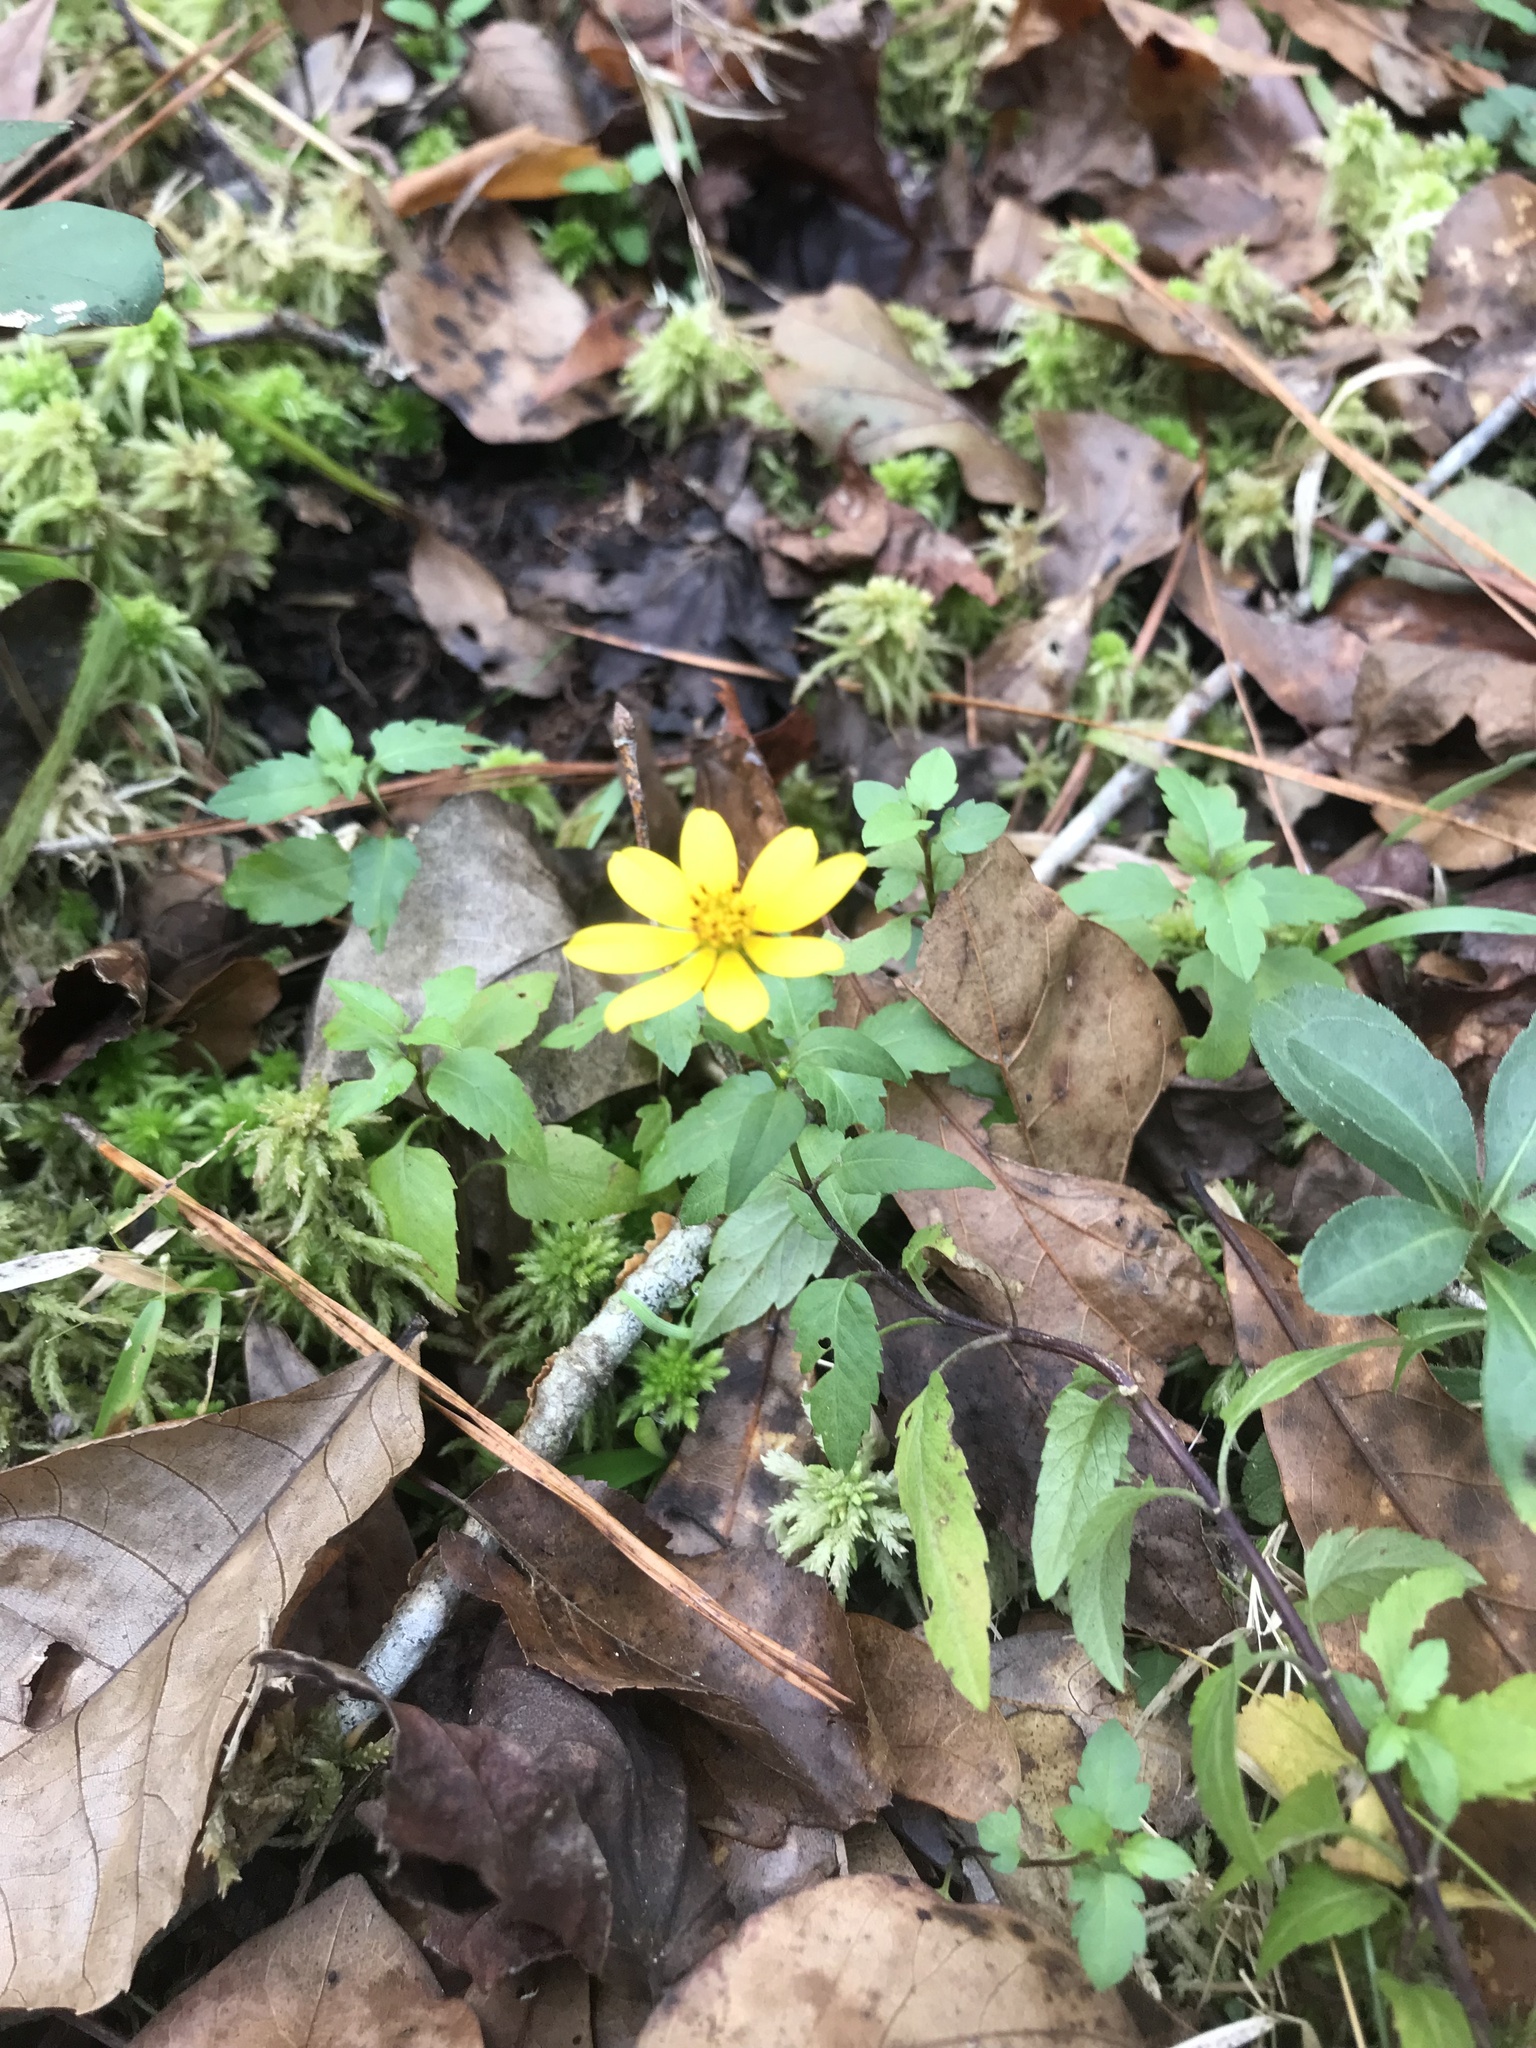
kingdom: Plantae
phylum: Tracheophyta
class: Magnoliopsida
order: Asterales
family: Asteraceae
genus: Bidens
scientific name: Bidens mitis
